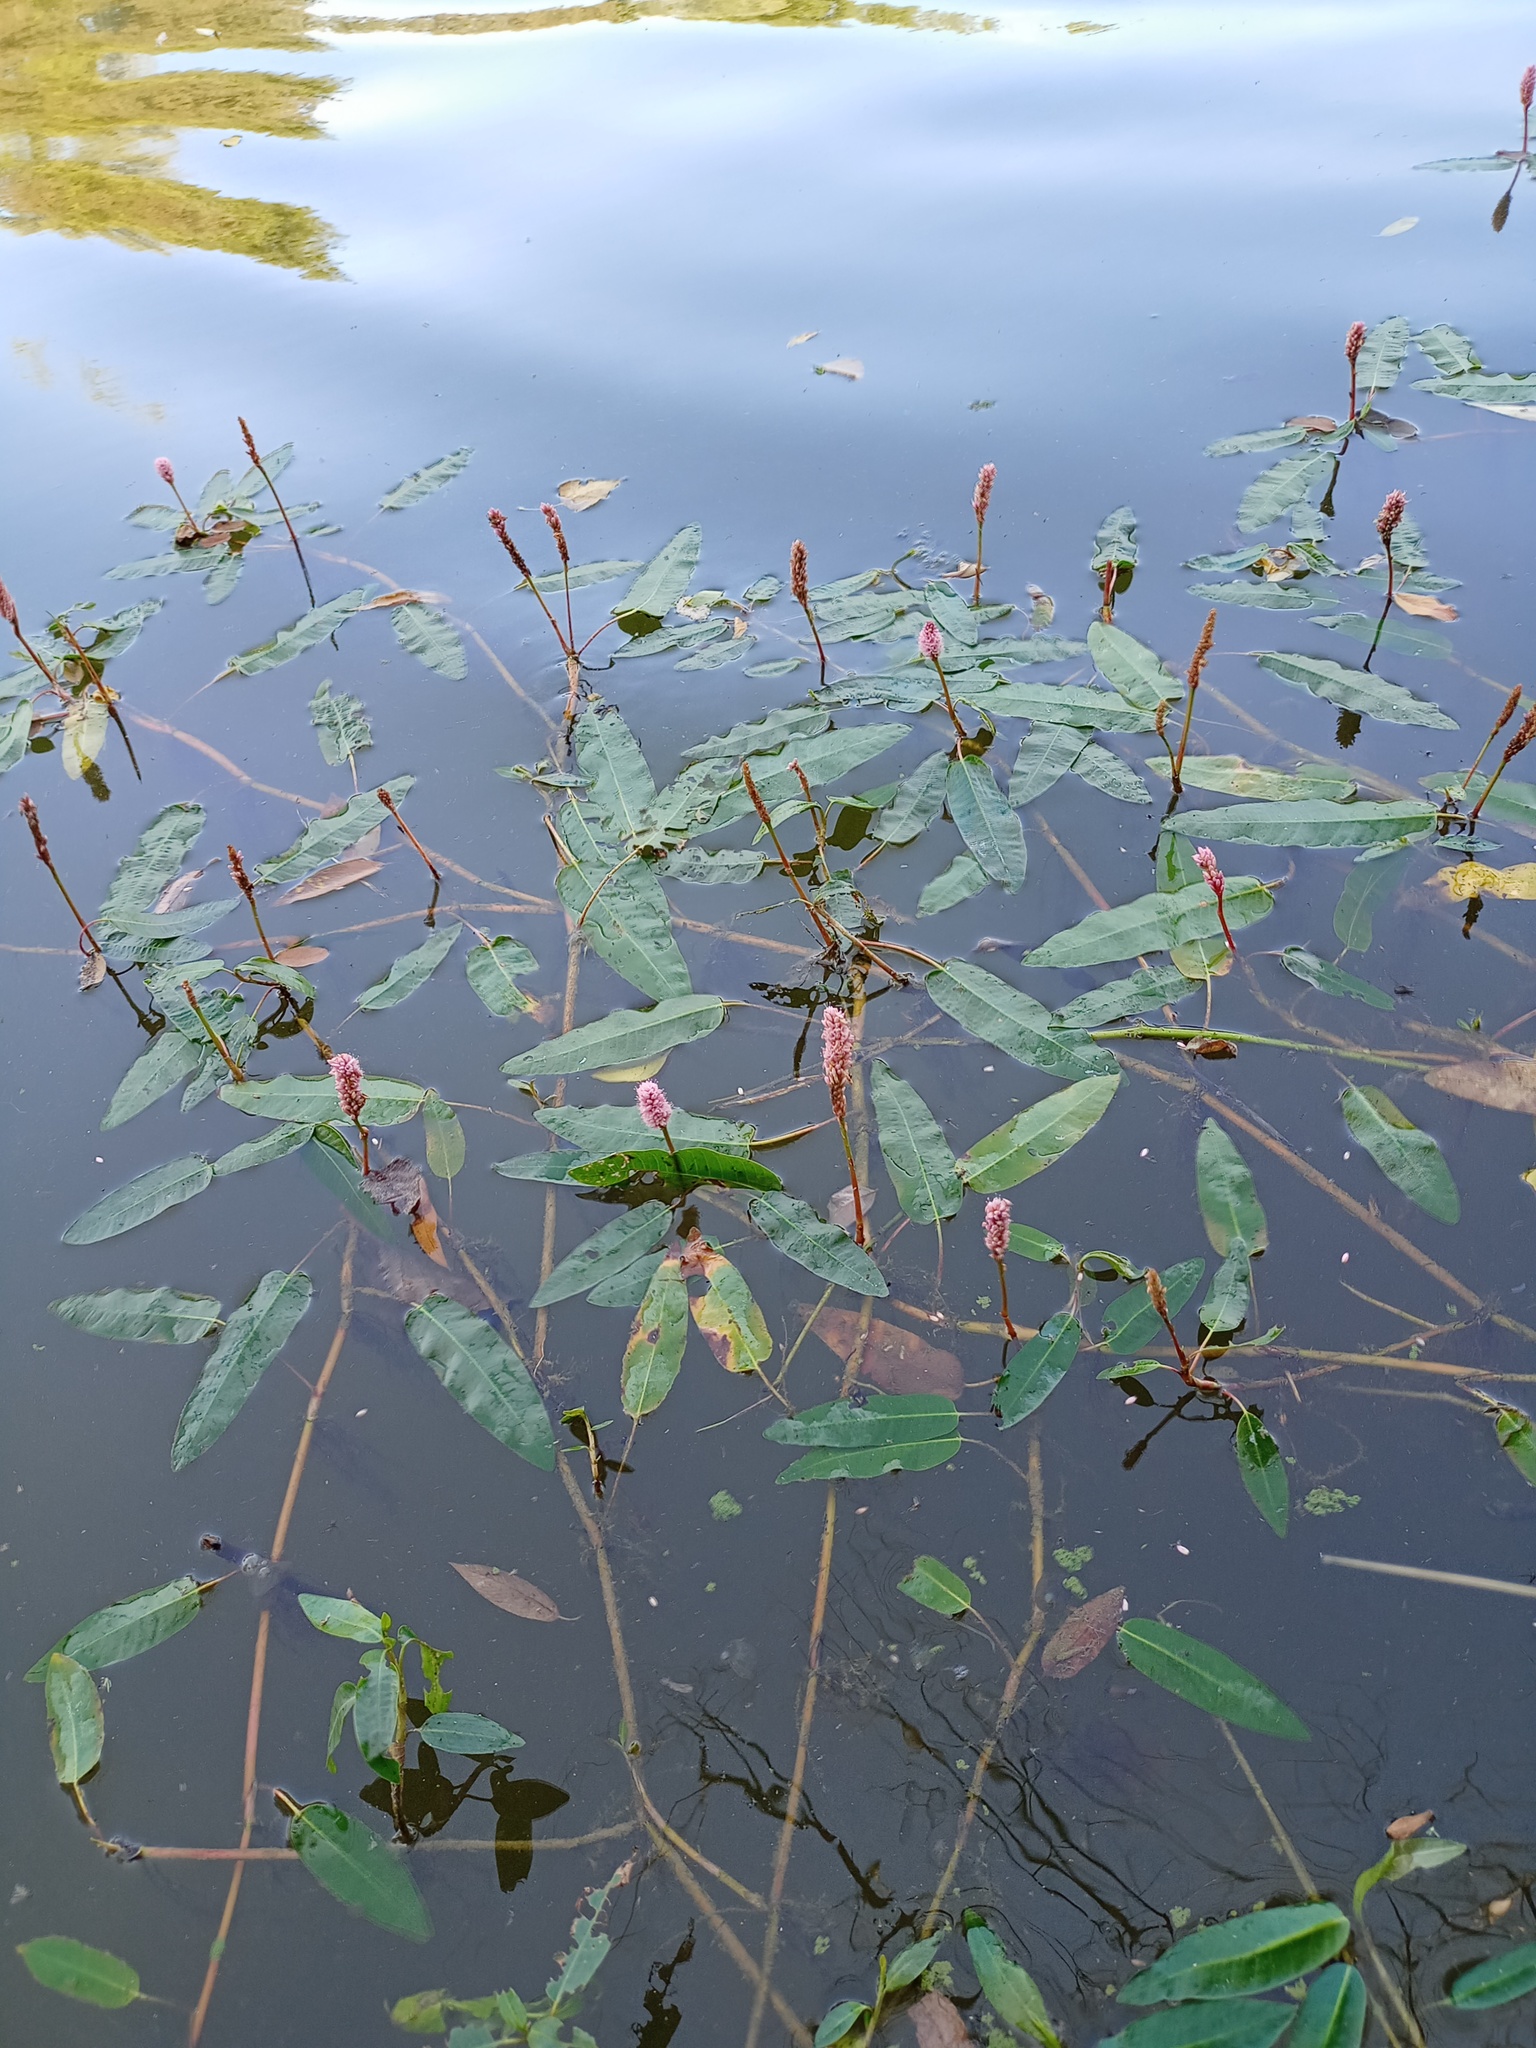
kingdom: Plantae
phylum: Tracheophyta
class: Magnoliopsida
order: Caryophyllales
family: Polygonaceae
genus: Persicaria
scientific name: Persicaria amphibia
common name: Amphibious bistort
